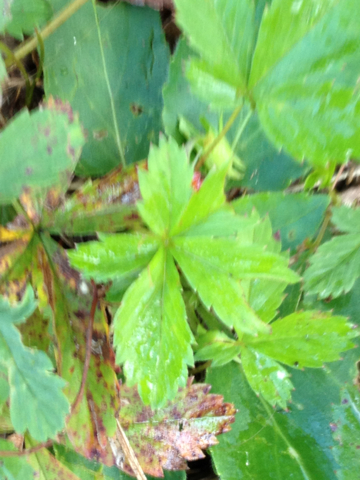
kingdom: Plantae
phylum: Tracheophyta
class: Magnoliopsida
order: Rosales
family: Rosaceae
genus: Potentilla
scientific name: Potentilla canadensis
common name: Canada cinquefoil
